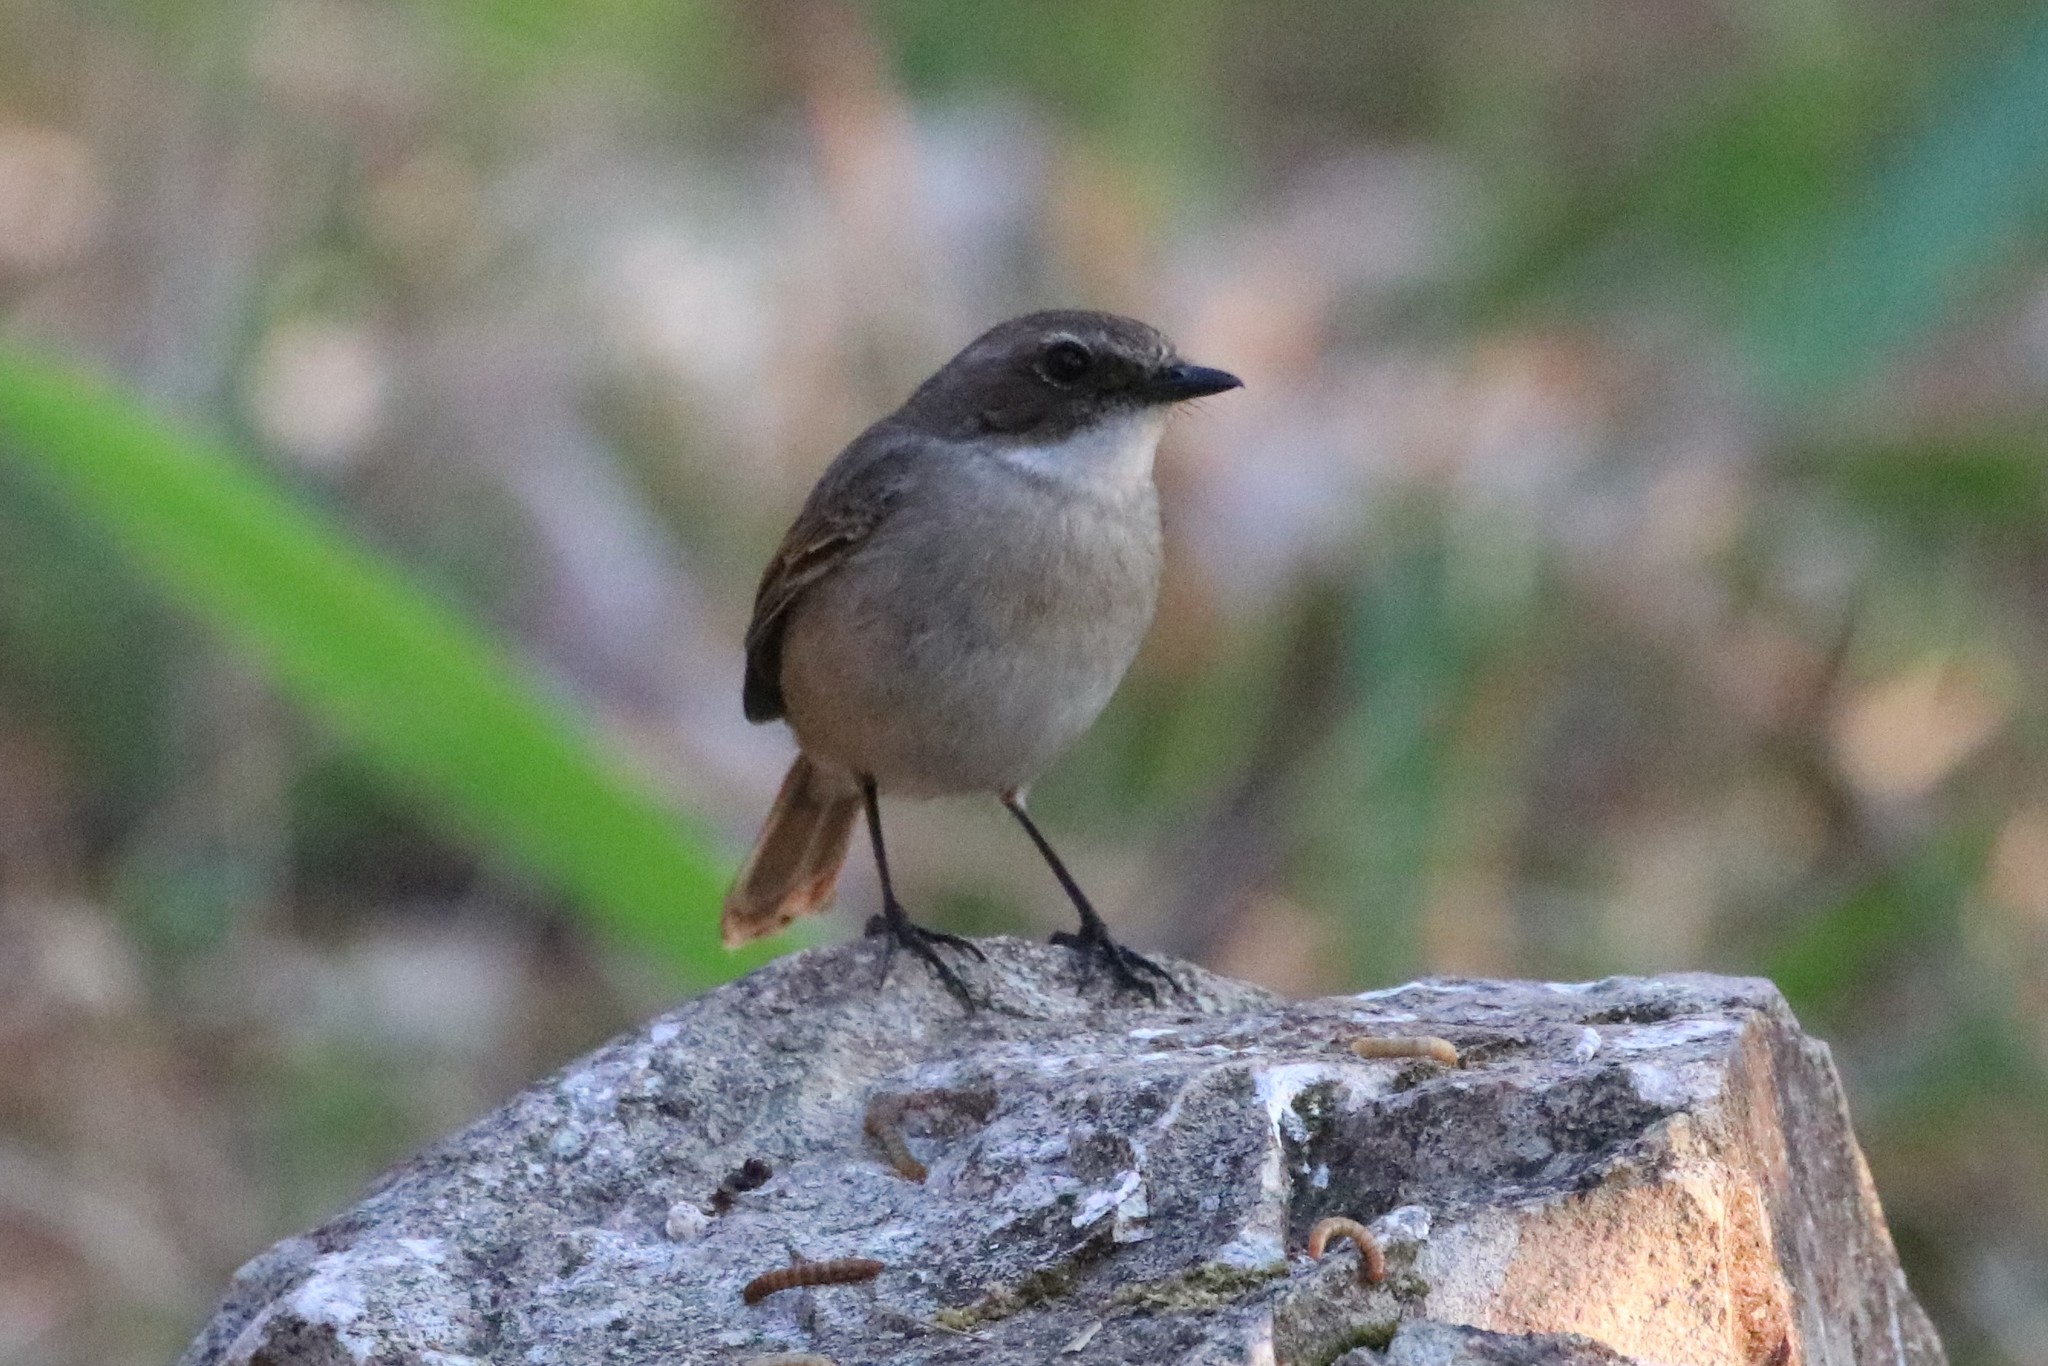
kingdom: Animalia
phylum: Chordata
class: Aves
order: Passeriformes
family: Muscicapidae
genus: Saxicola
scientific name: Saxicola ferreus
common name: Grey bush chat
